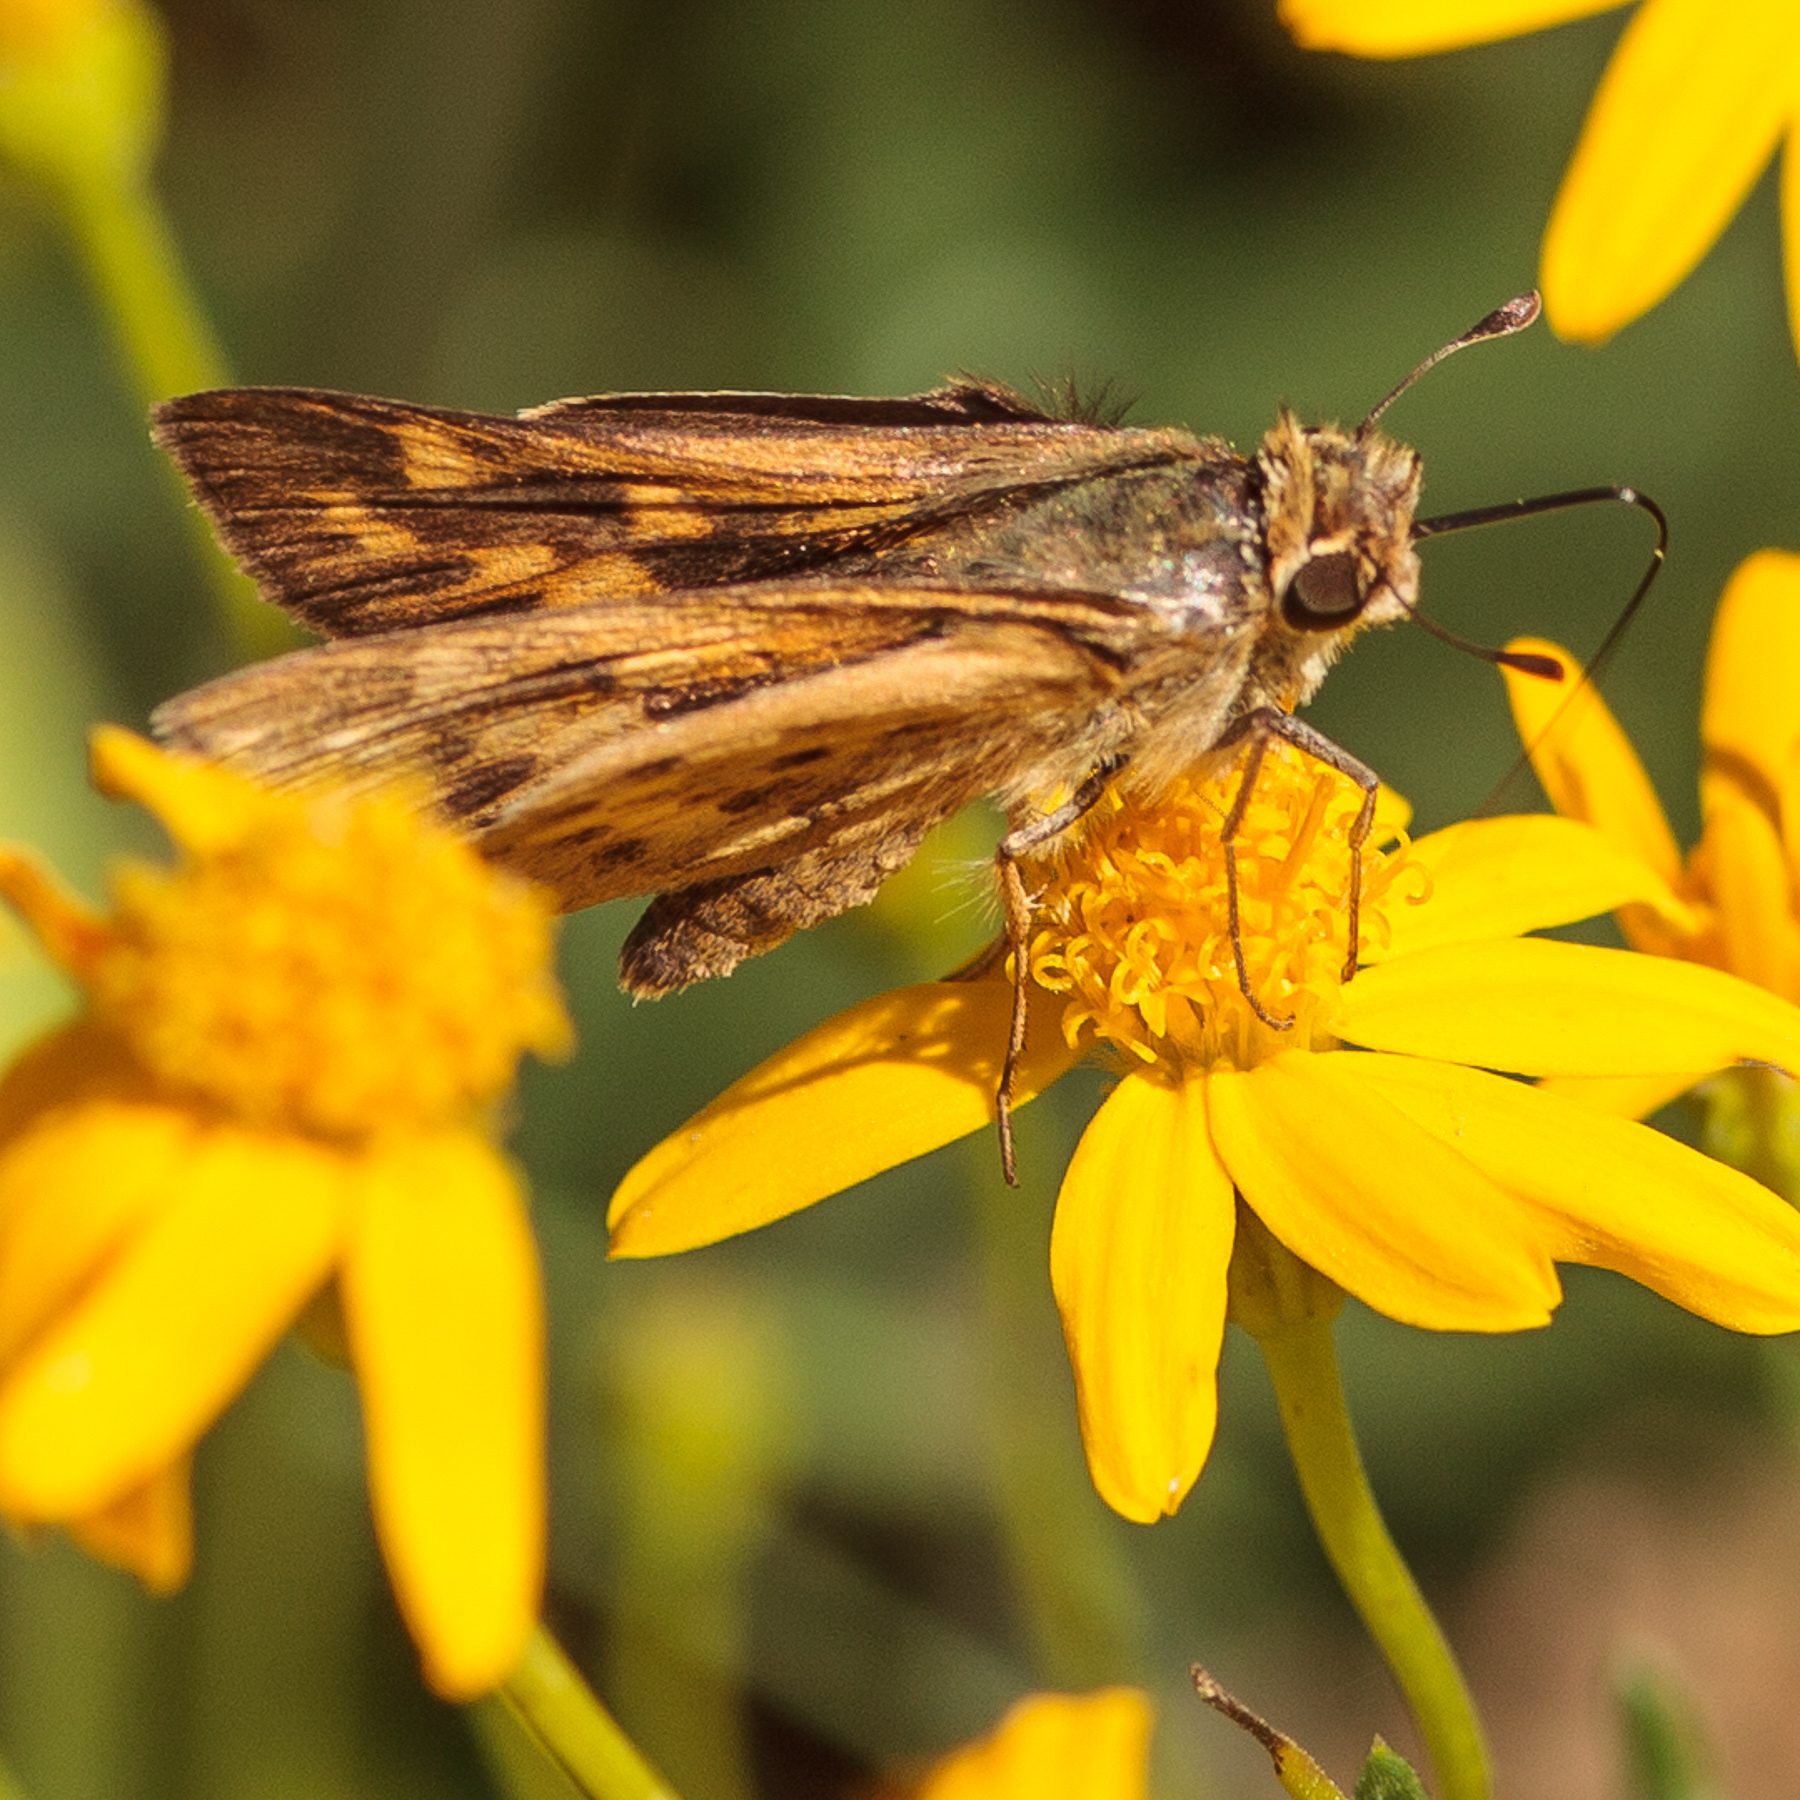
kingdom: Animalia
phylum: Arthropoda
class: Insecta
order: Lepidoptera
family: Hesperiidae
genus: Hylephila
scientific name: Hylephila phyleus
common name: Fiery skipper
